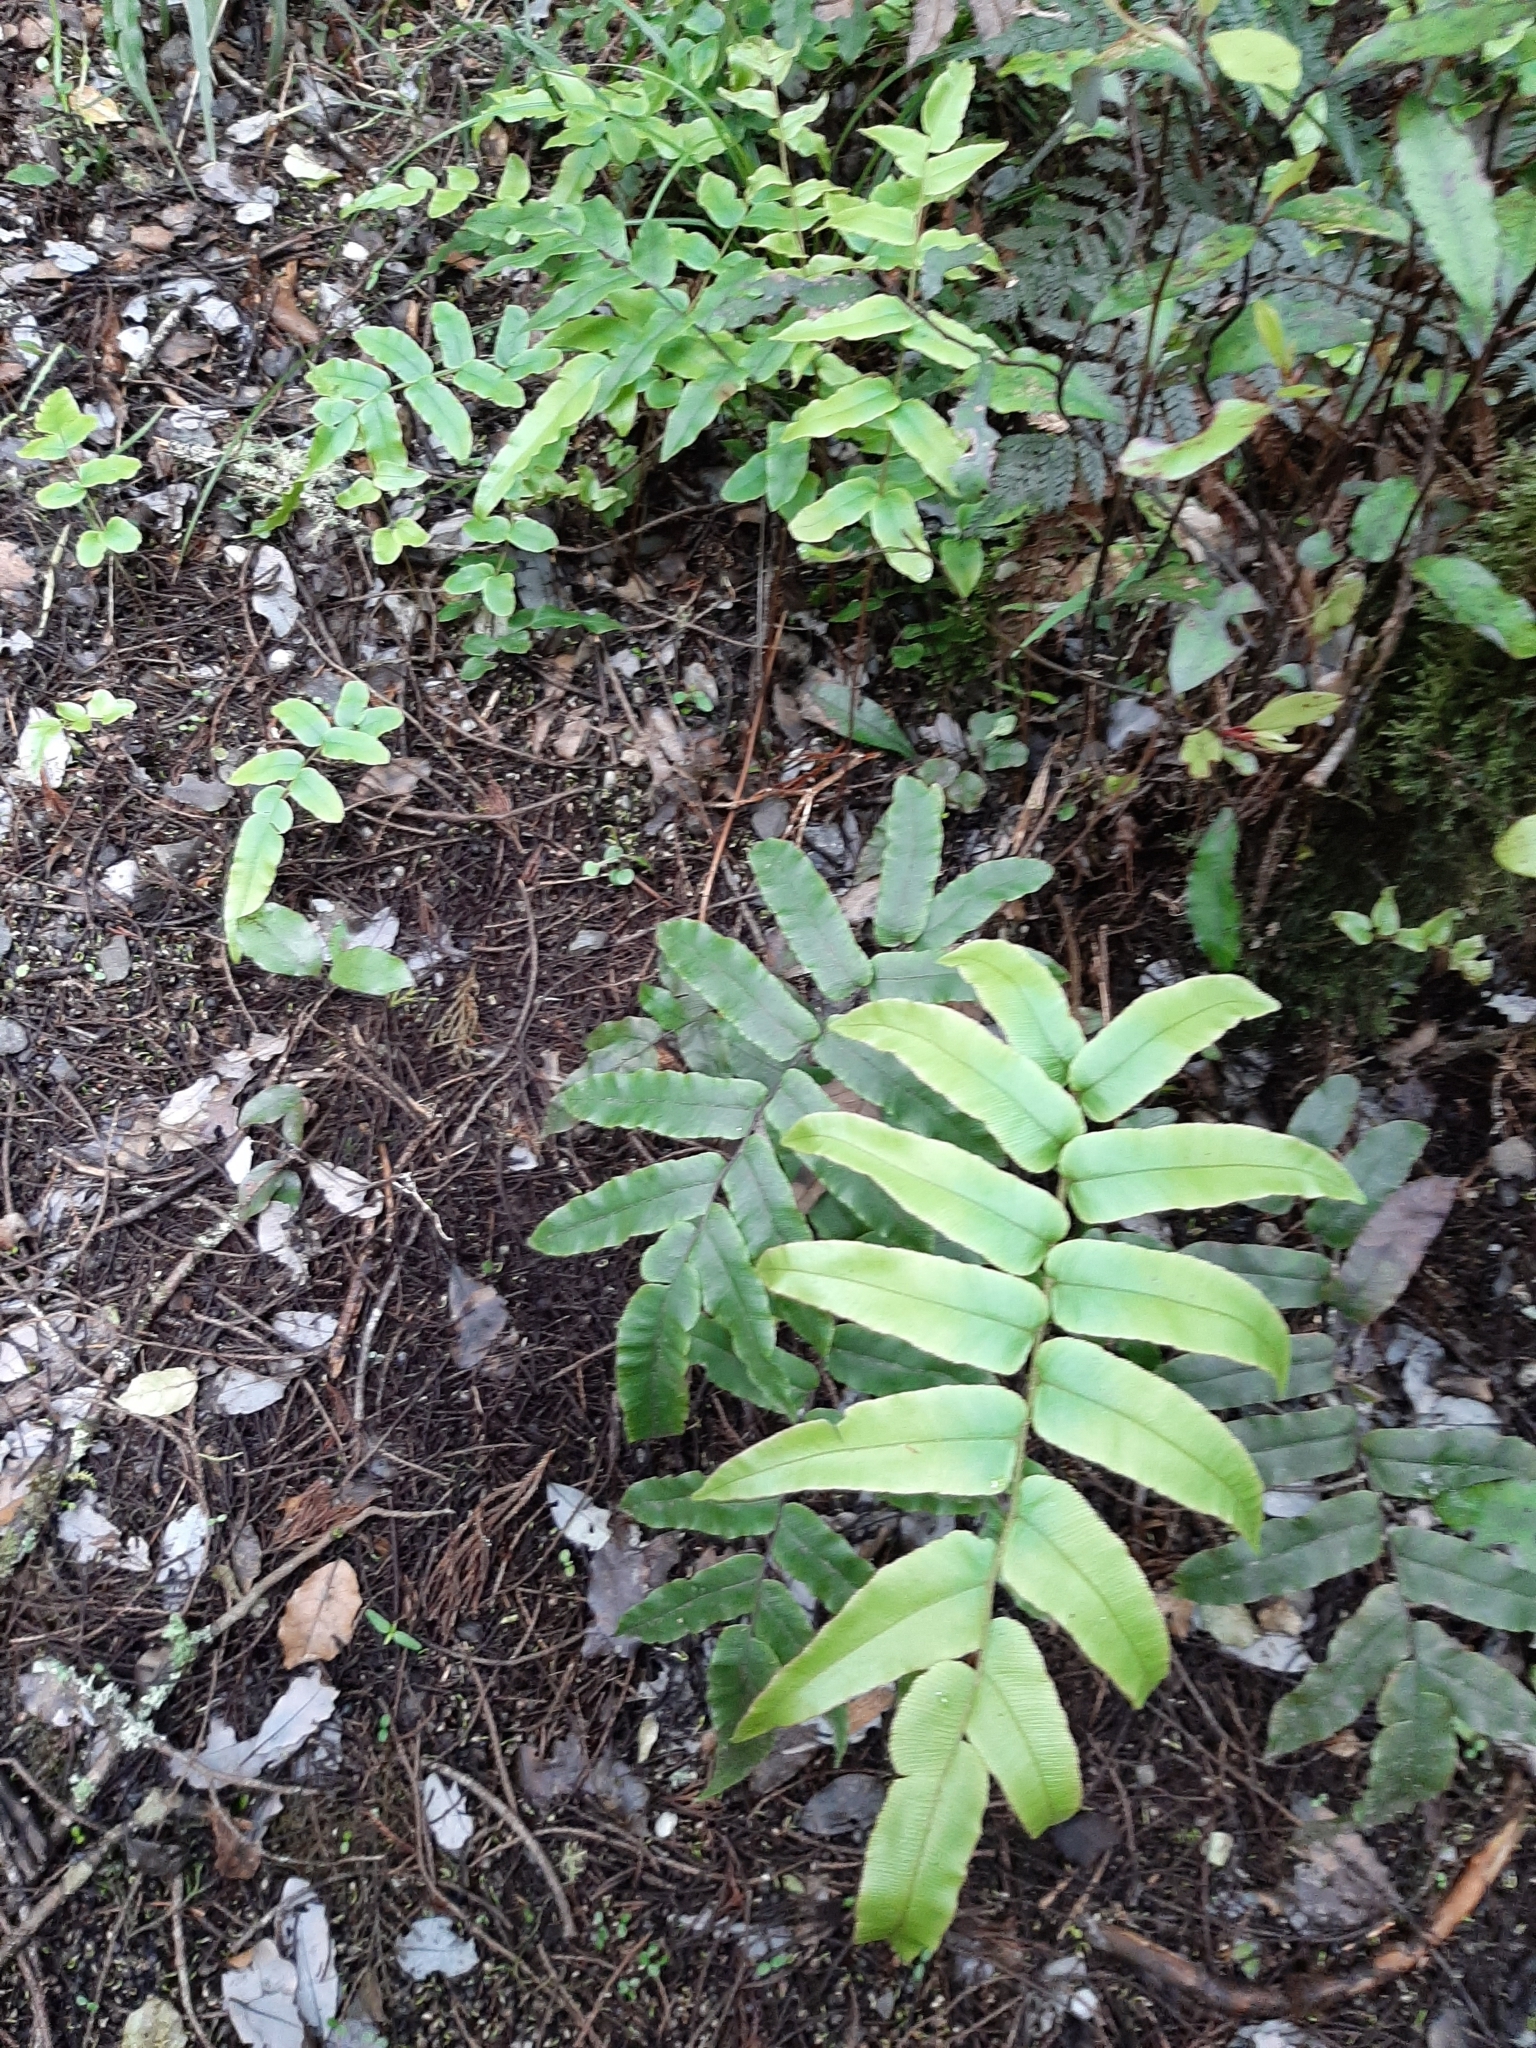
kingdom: Plantae
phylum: Tracheophyta
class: Polypodiopsida
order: Polypodiales
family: Blechnaceae
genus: Parablechnum
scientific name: Parablechnum procerum
